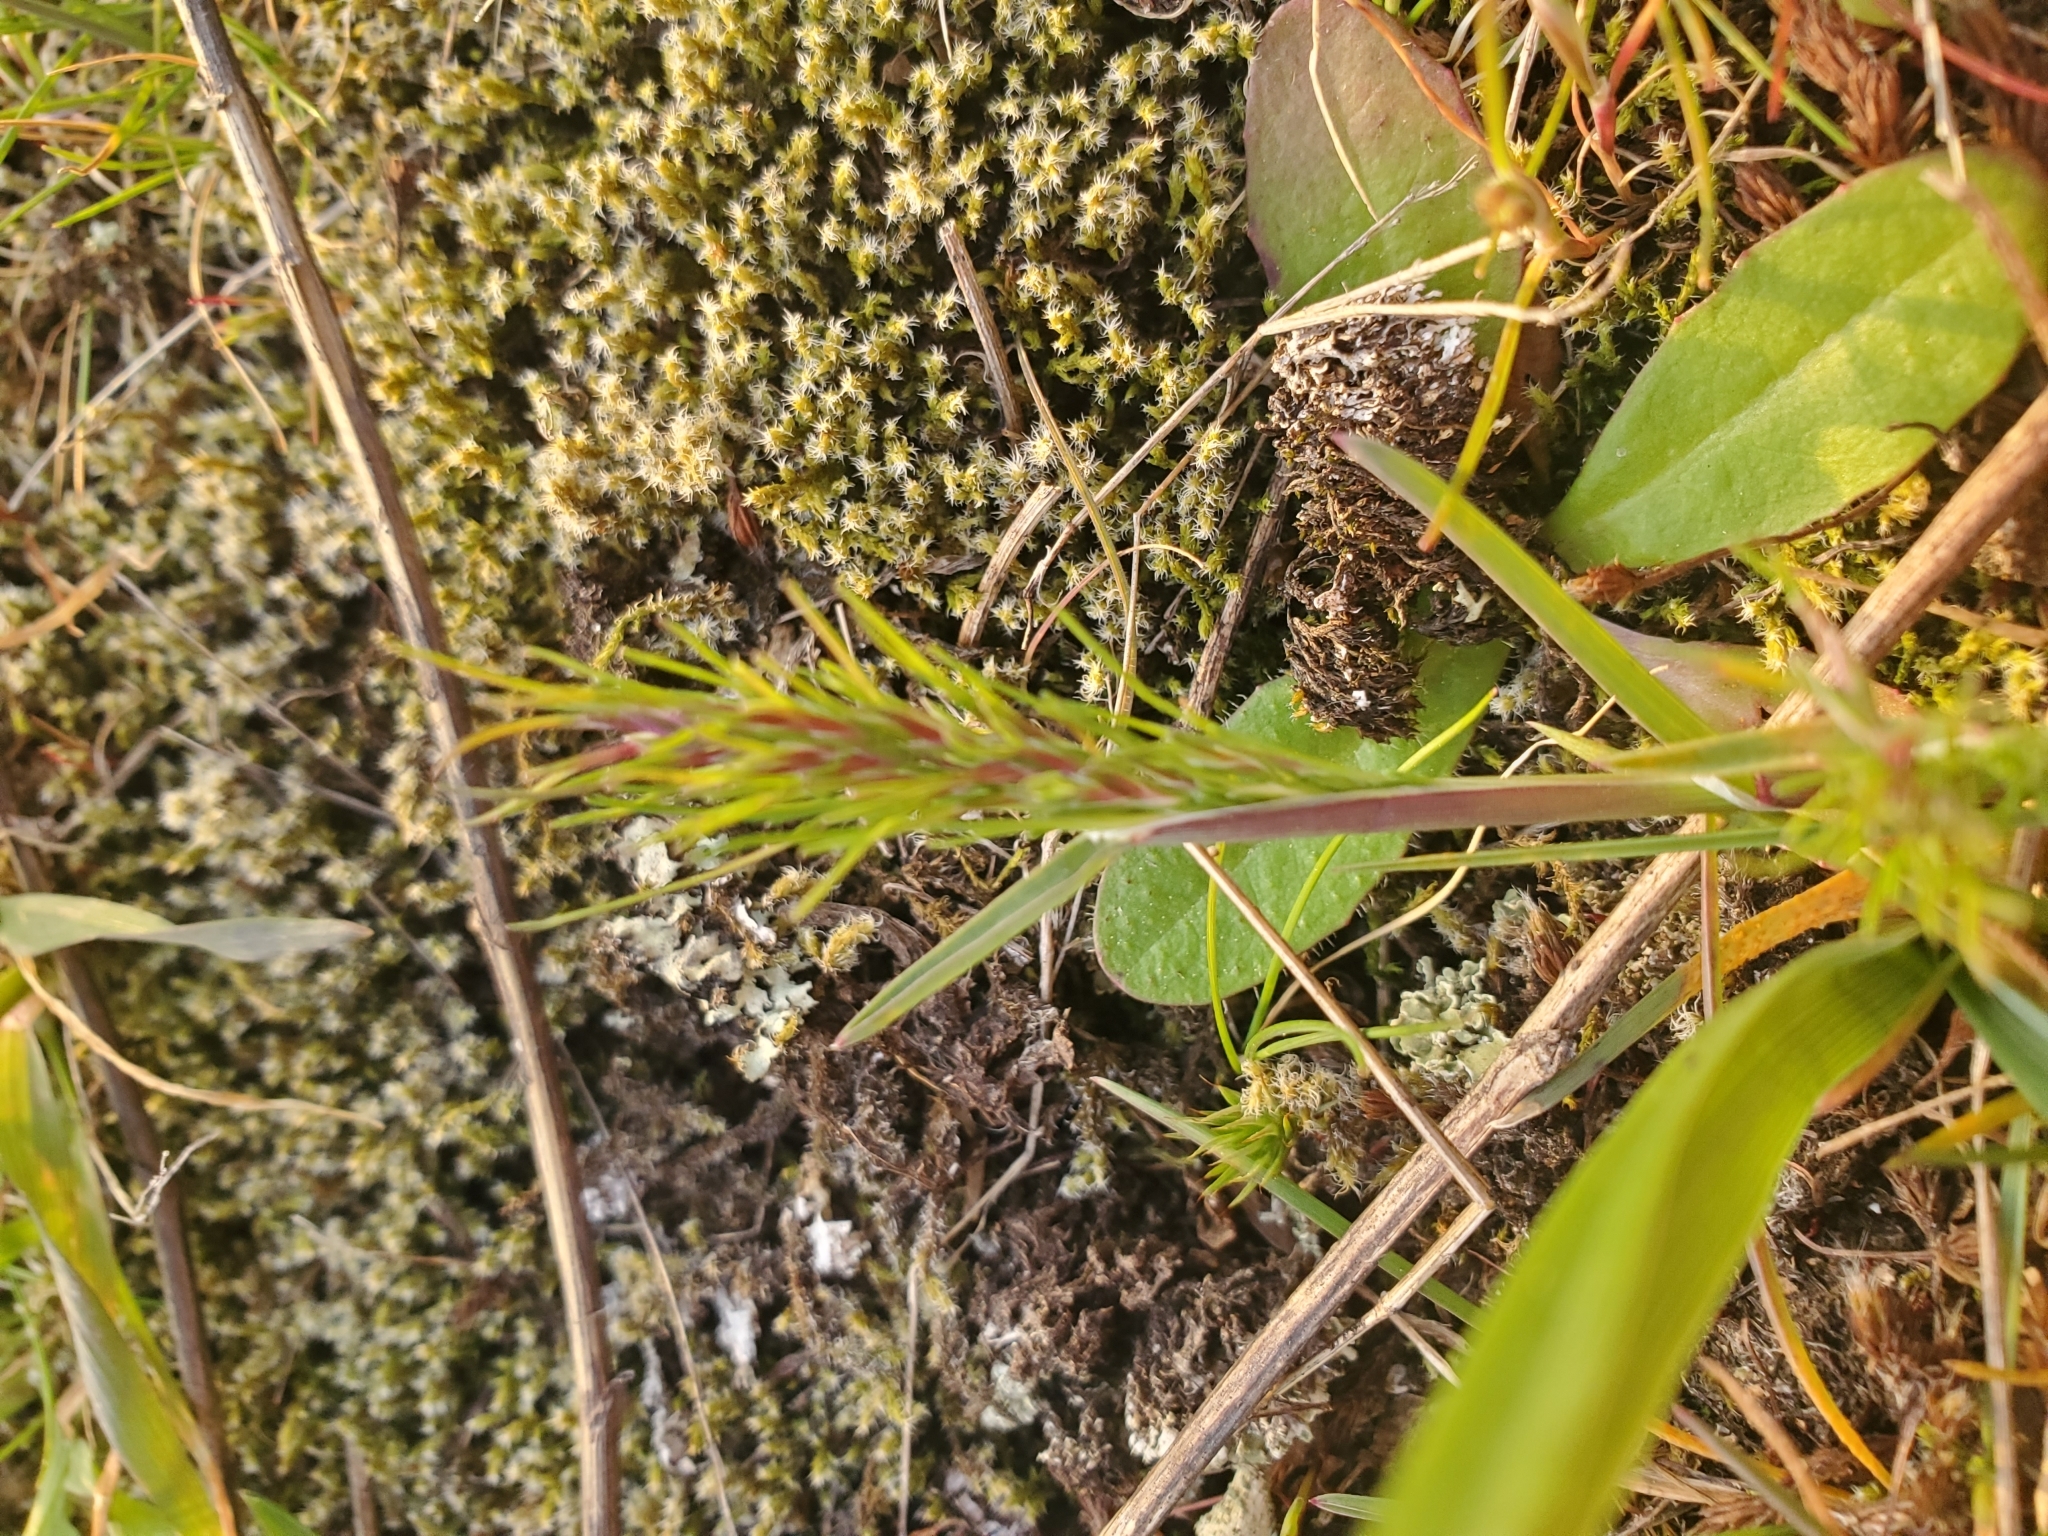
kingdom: Plantae
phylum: Tracheophyta
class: Liliopsida
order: Poales
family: Poaceae
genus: Poa
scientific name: Poa bulbosa
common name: Bulbous bluegrass
